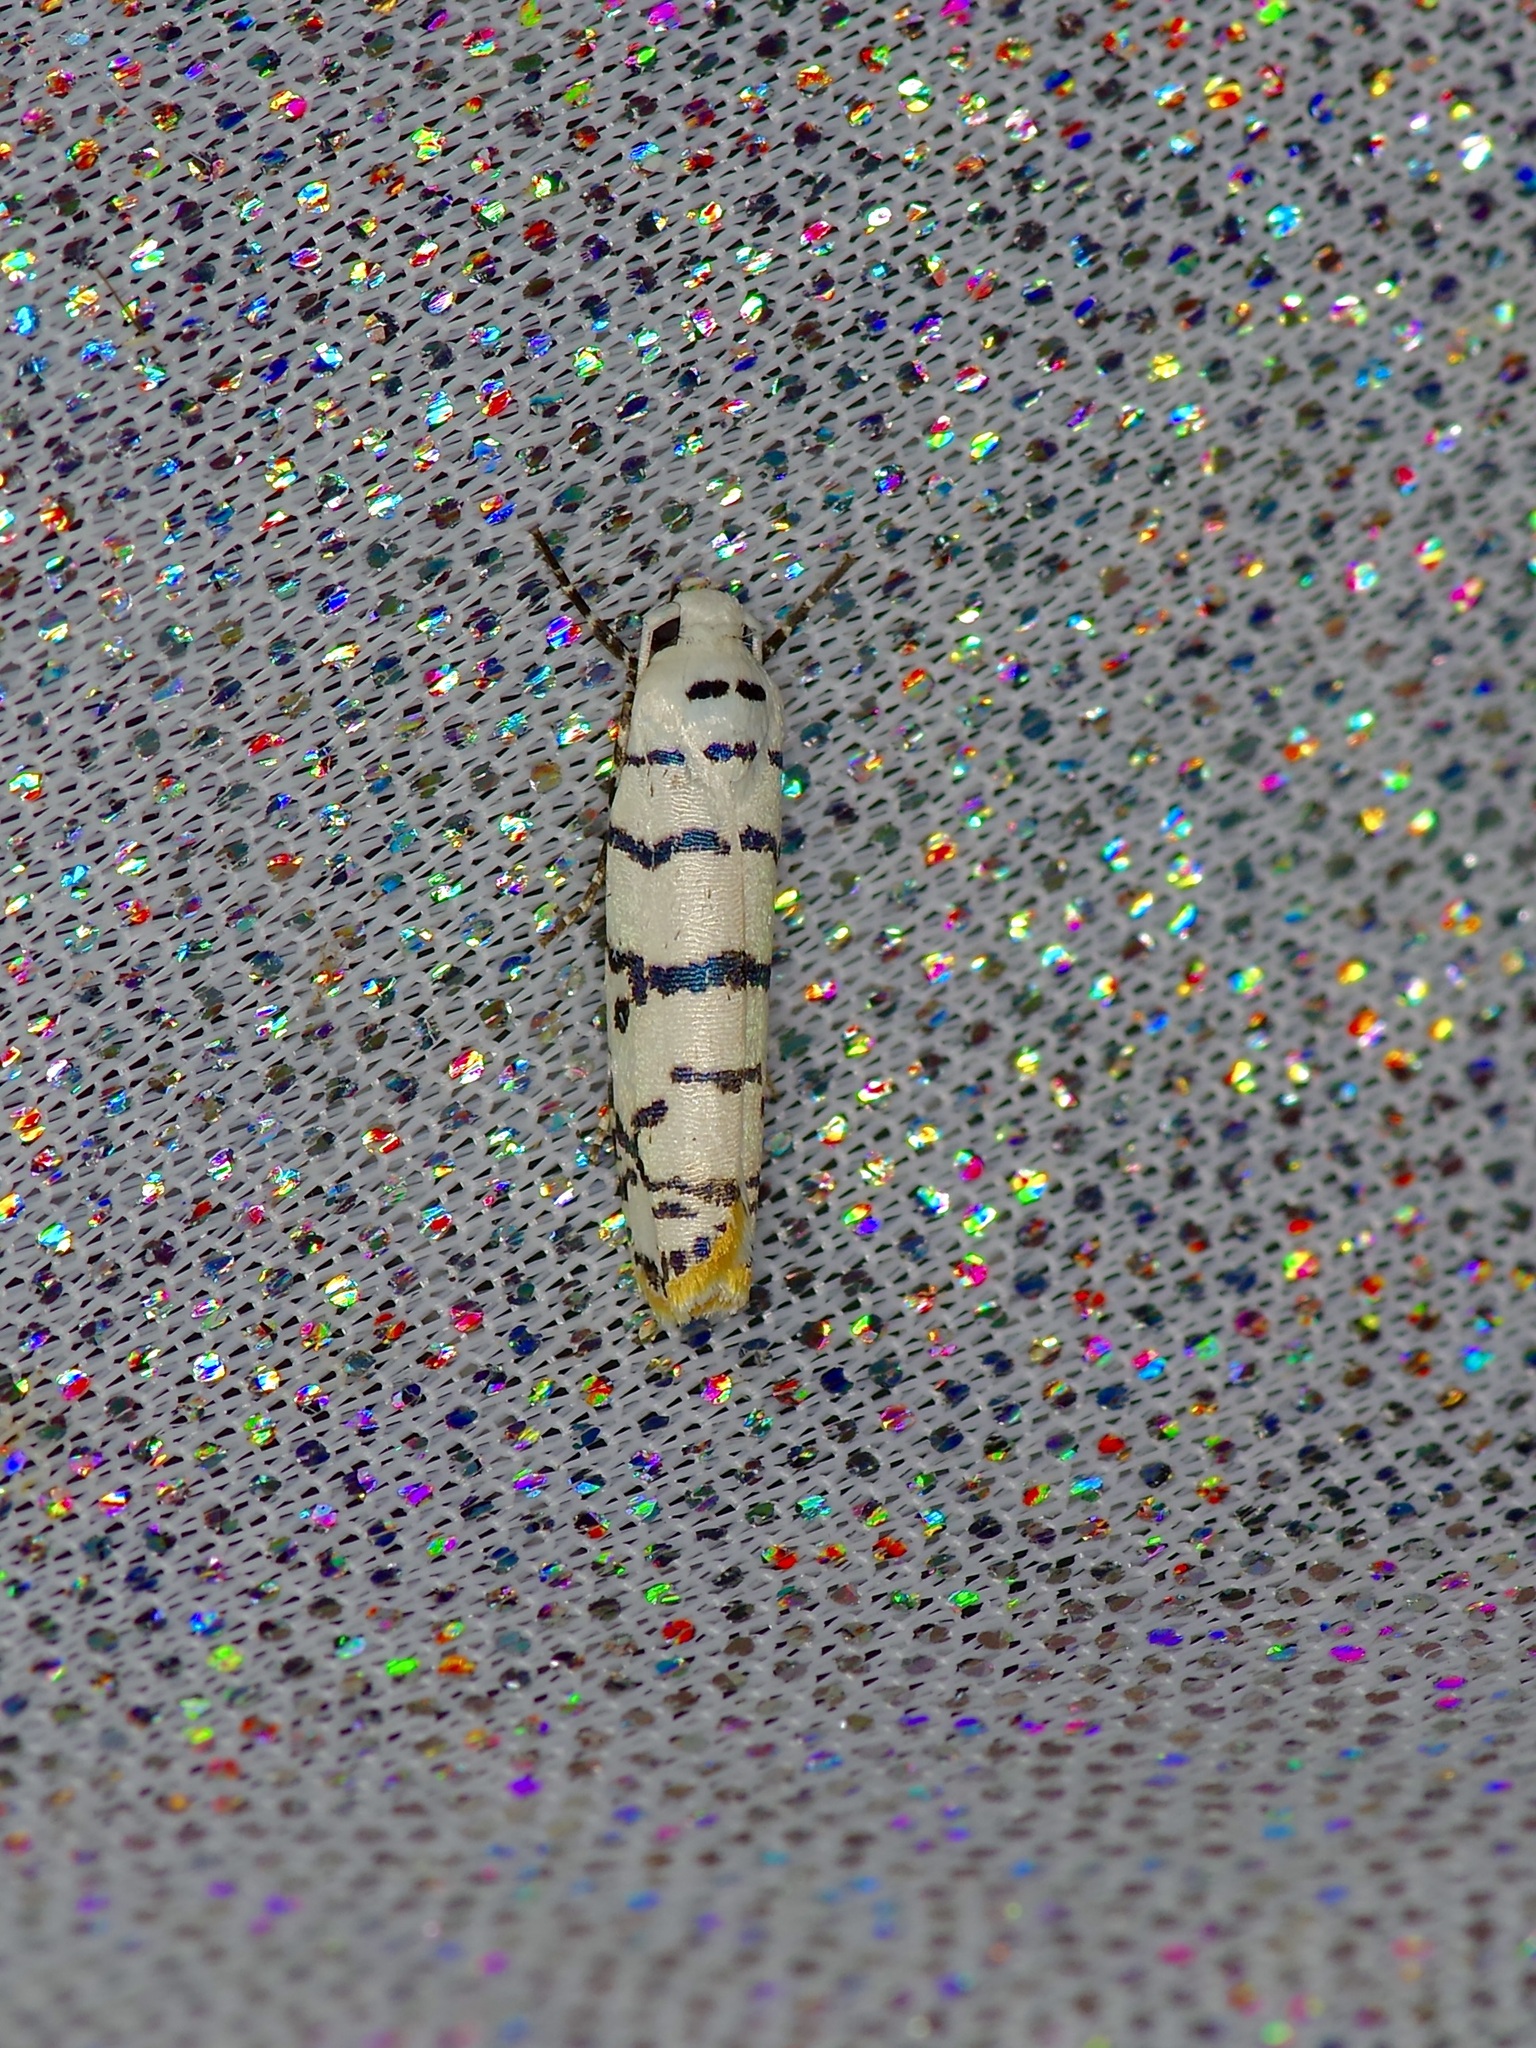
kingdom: Animalia
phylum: Arthropoda
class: Insecta
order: Lepidoptera
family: Ethmiidae
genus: Ethmia
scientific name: Ethmia delliella
